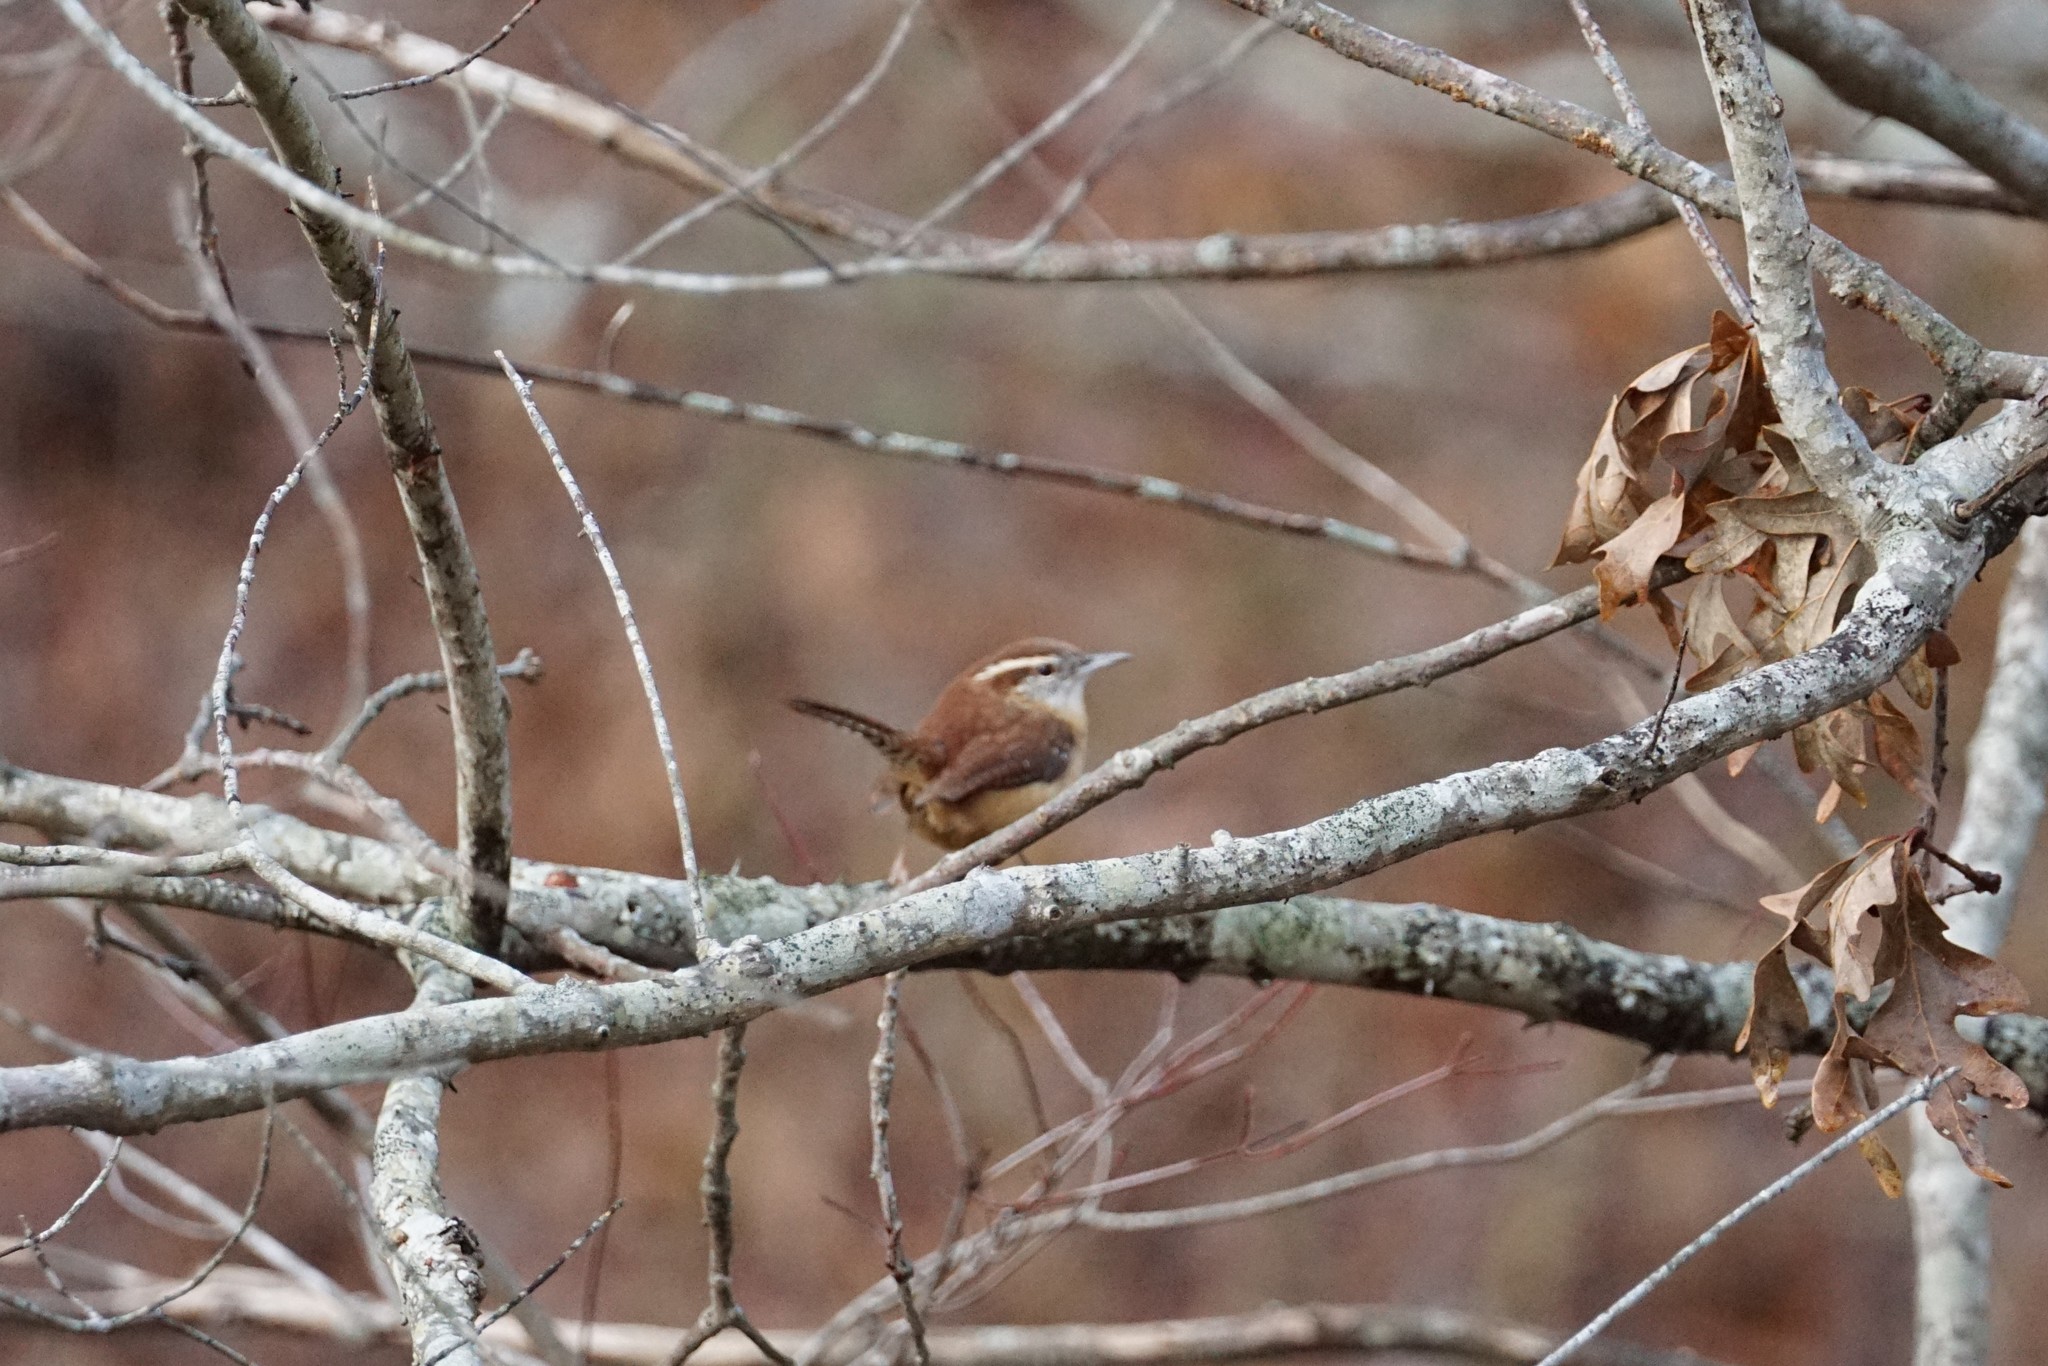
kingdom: Animalia
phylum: Chordata
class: Aves
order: Passeriformes
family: Troglodytidae
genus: Thryothorus
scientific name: Thryothorus ludovicianus
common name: Carolina wren
